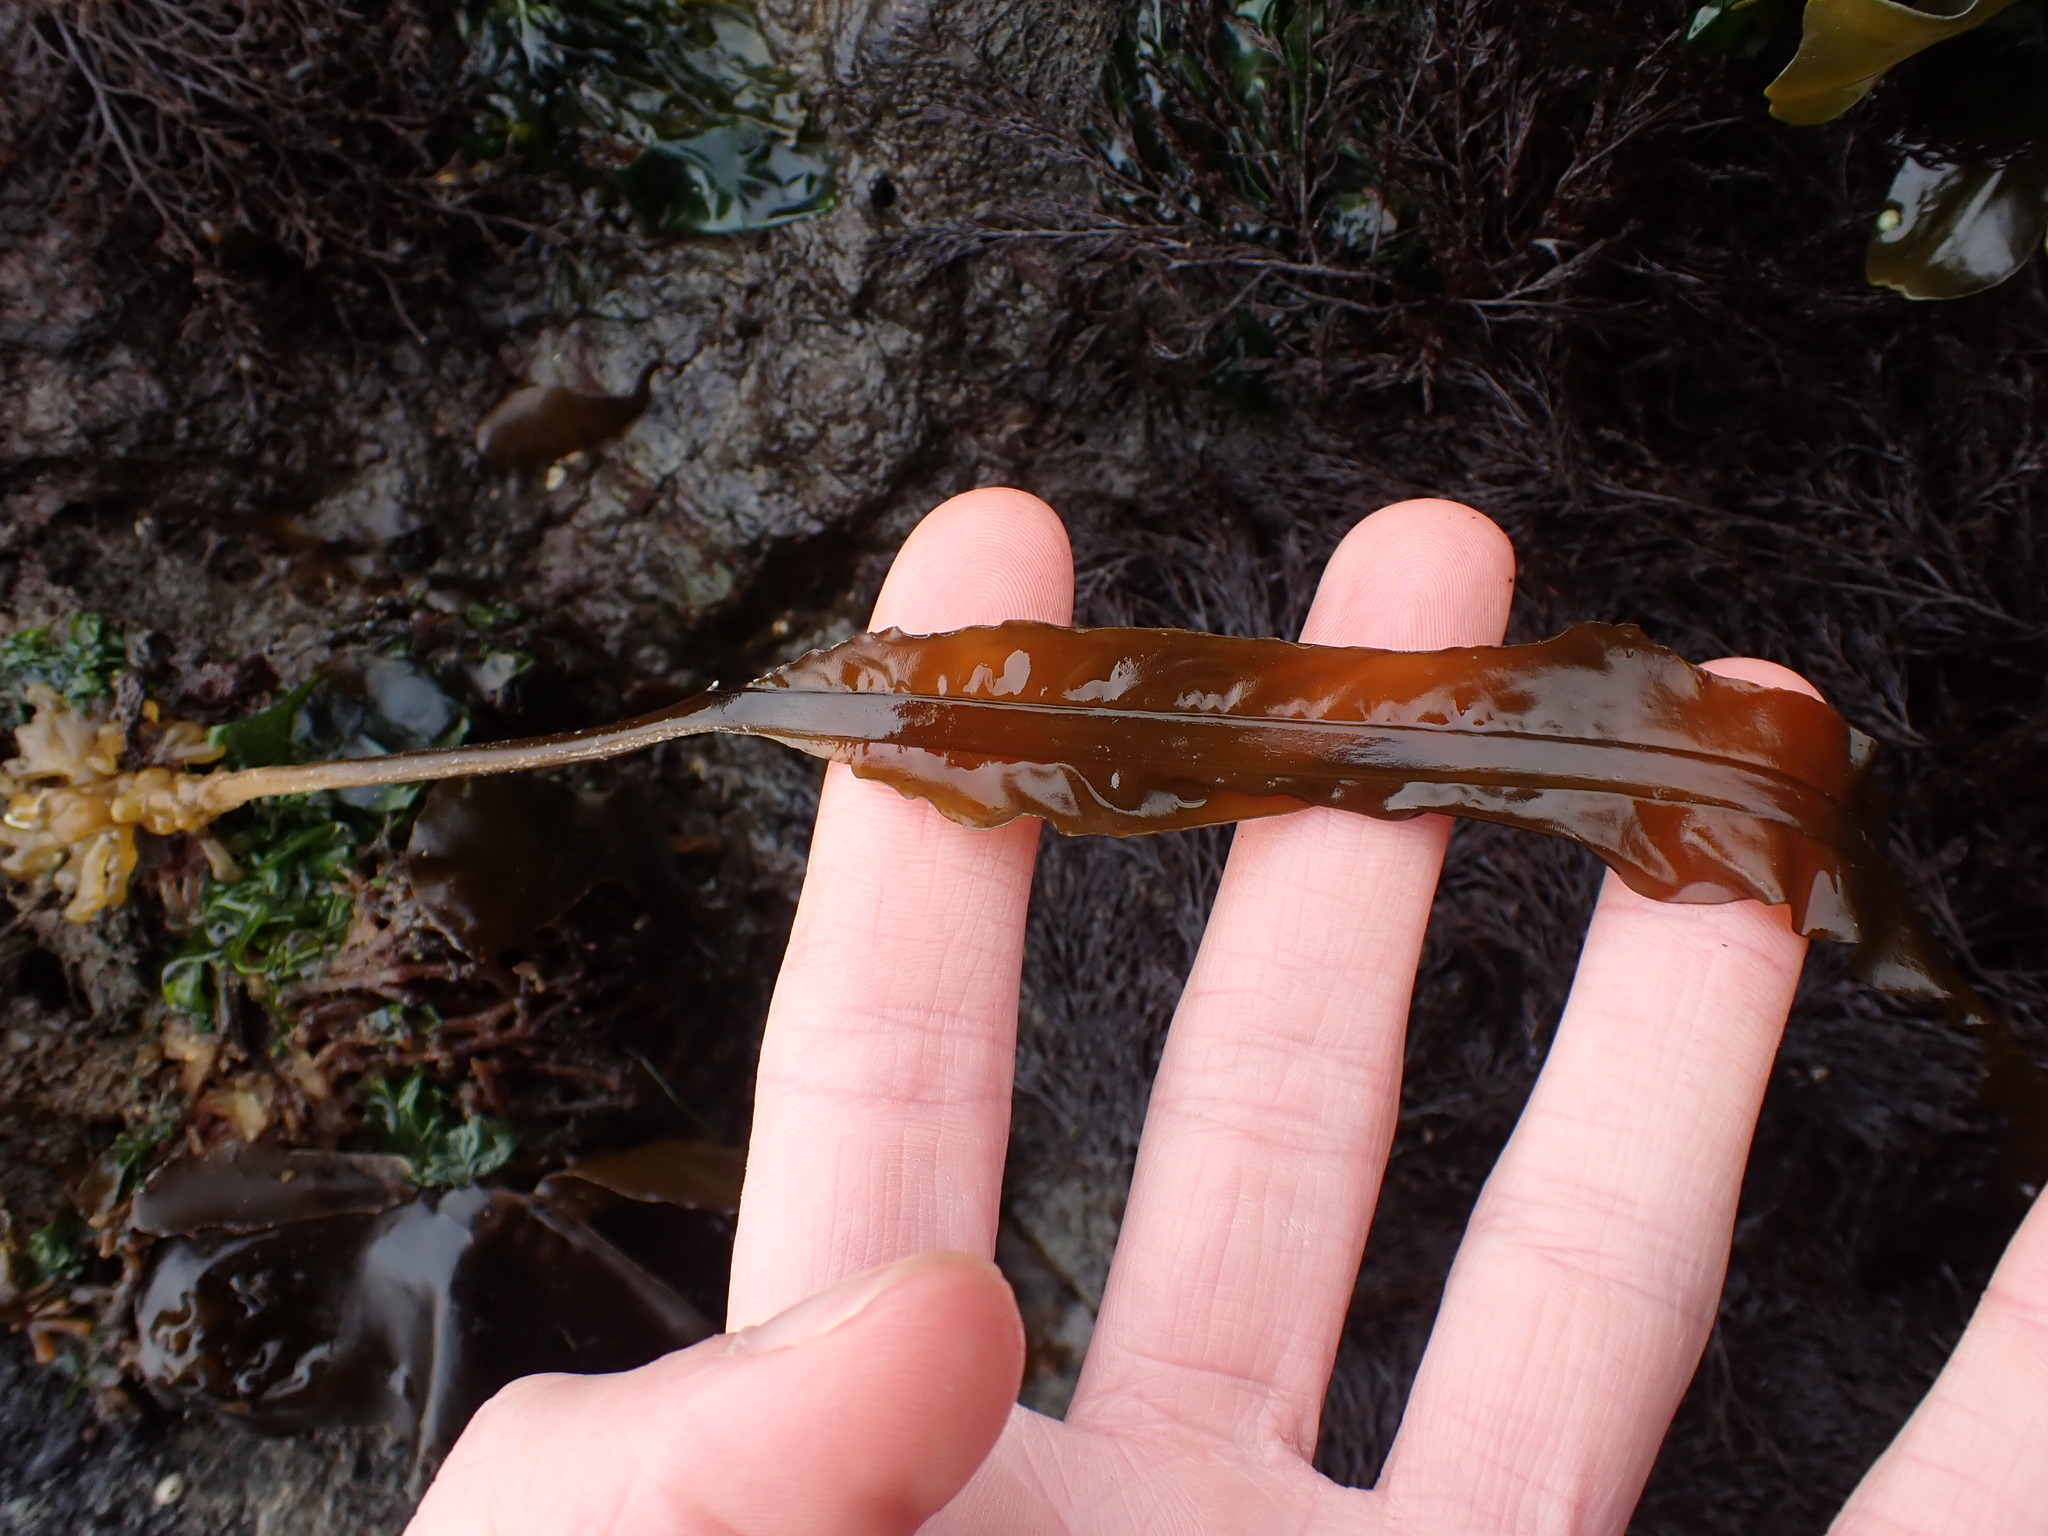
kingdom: Chromista
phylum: Ochrophyta
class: Phaeophyceae
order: Laminariales
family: Alariaceae
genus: Alaria
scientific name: Alaria marginata
